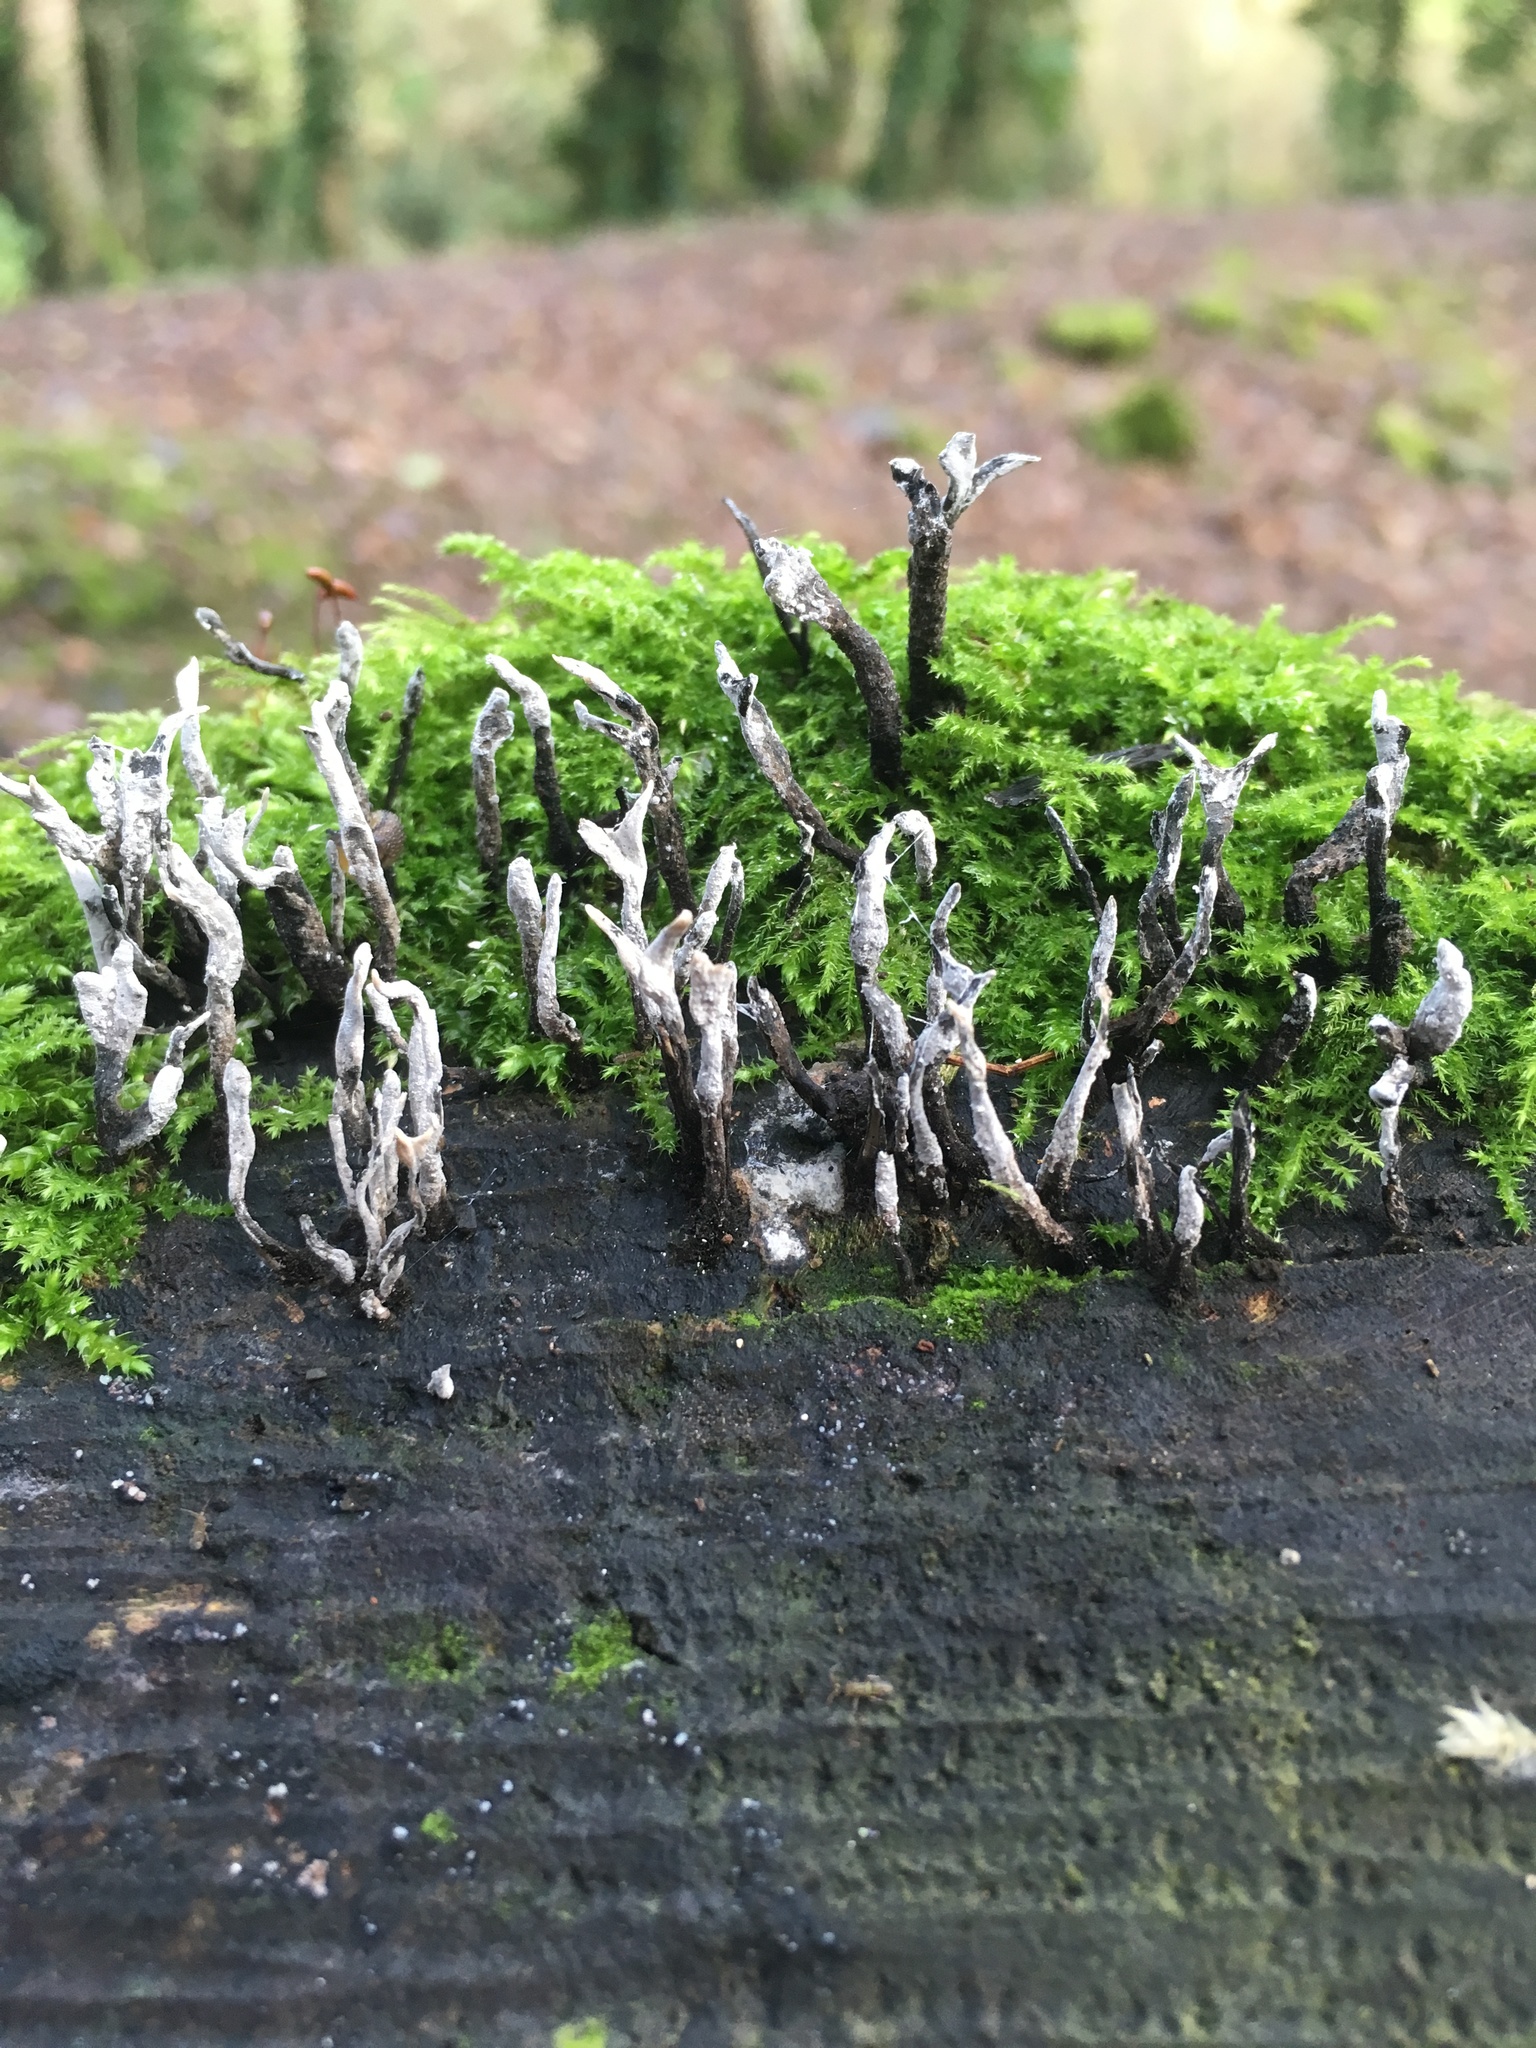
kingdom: Fungi
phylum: Ascomycota
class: Sordariomycetes
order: Xylariales
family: Xylariaceae
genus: Xylaria
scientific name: Xylaria hypoxylon
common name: Candle-snuff fungus
